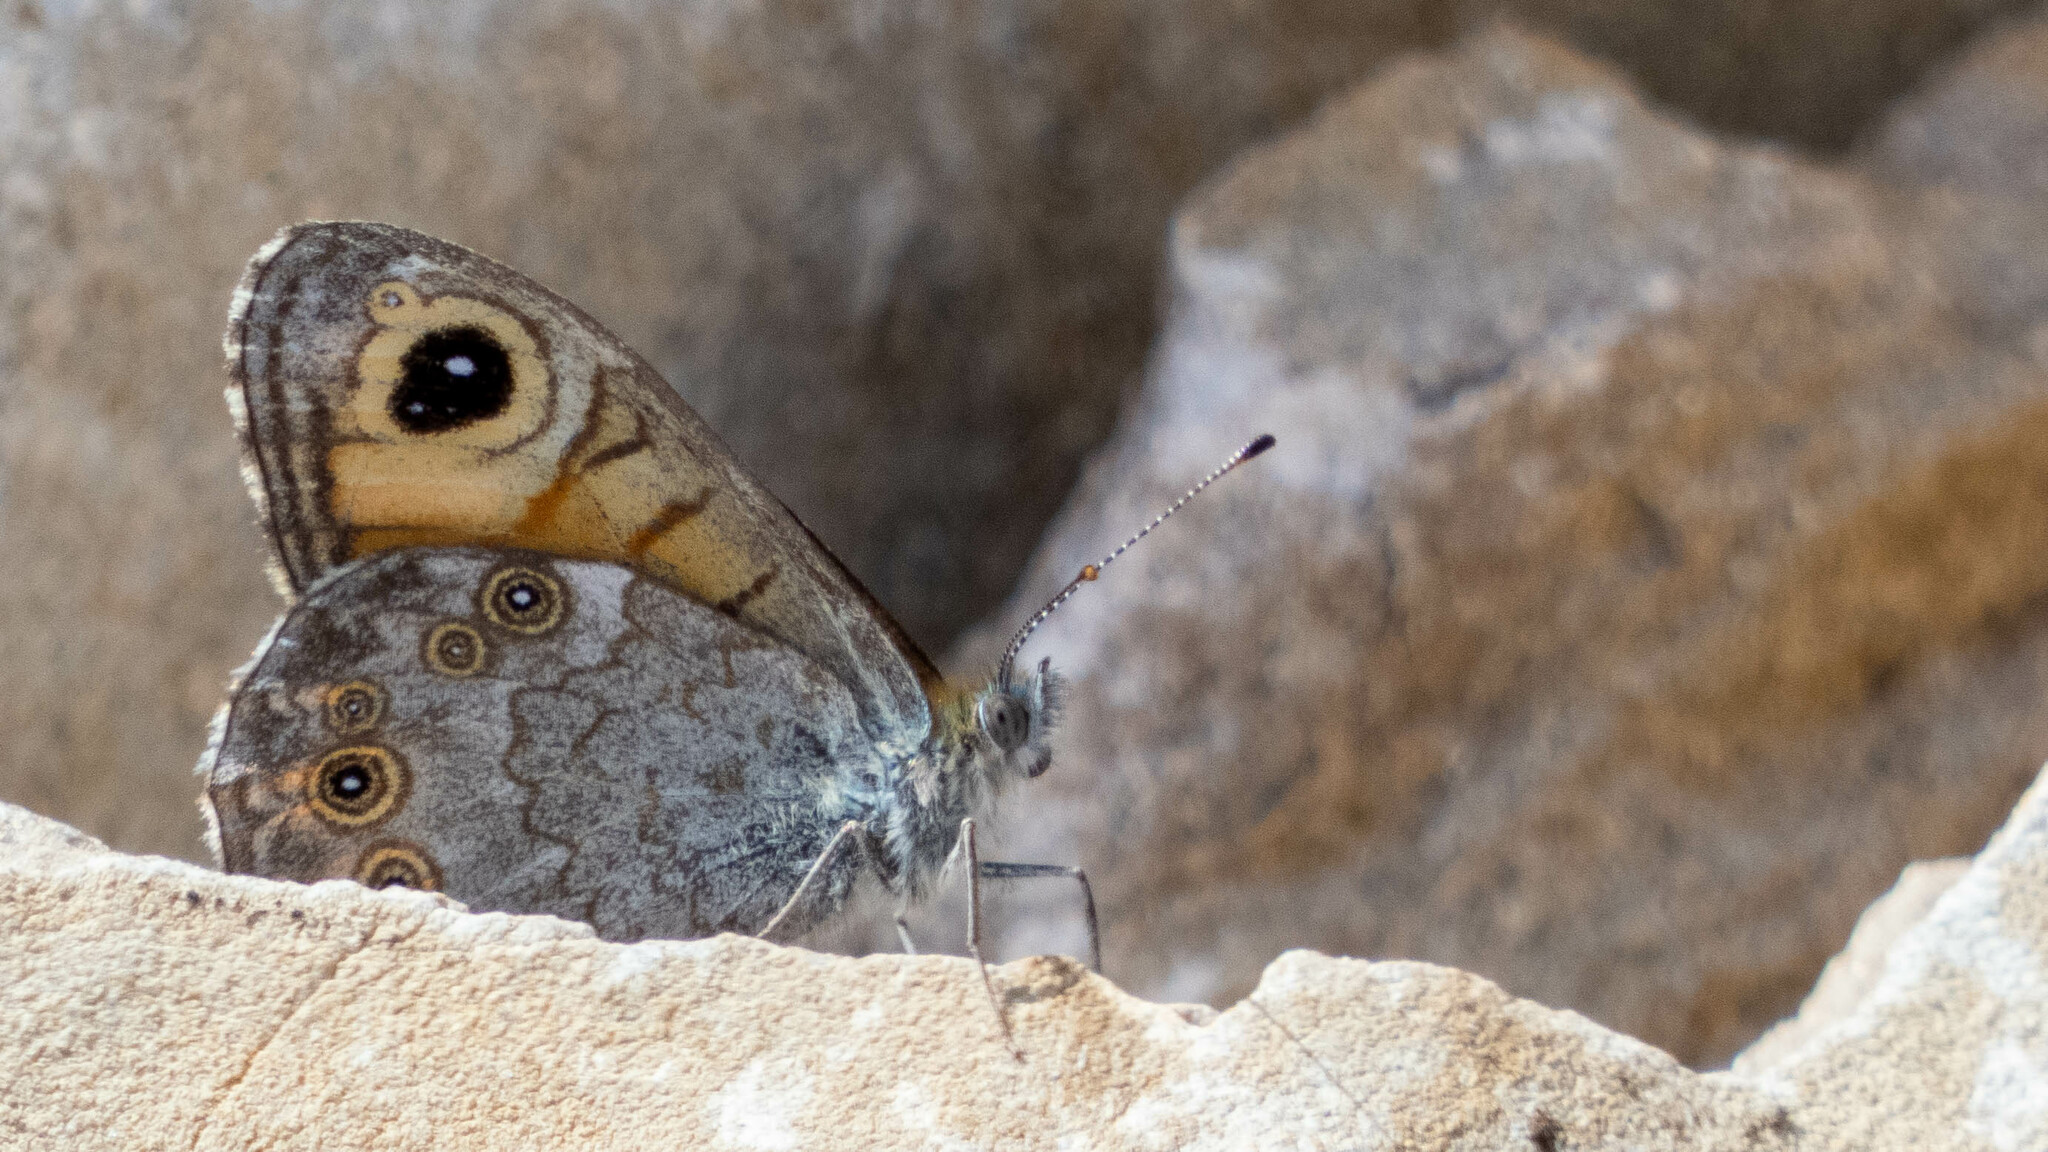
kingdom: Animalia
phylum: Arthropoda
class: Insecta
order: Lepidoptera
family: Nymphalidae
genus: Pararge
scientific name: Pararge Lasiommata maera
